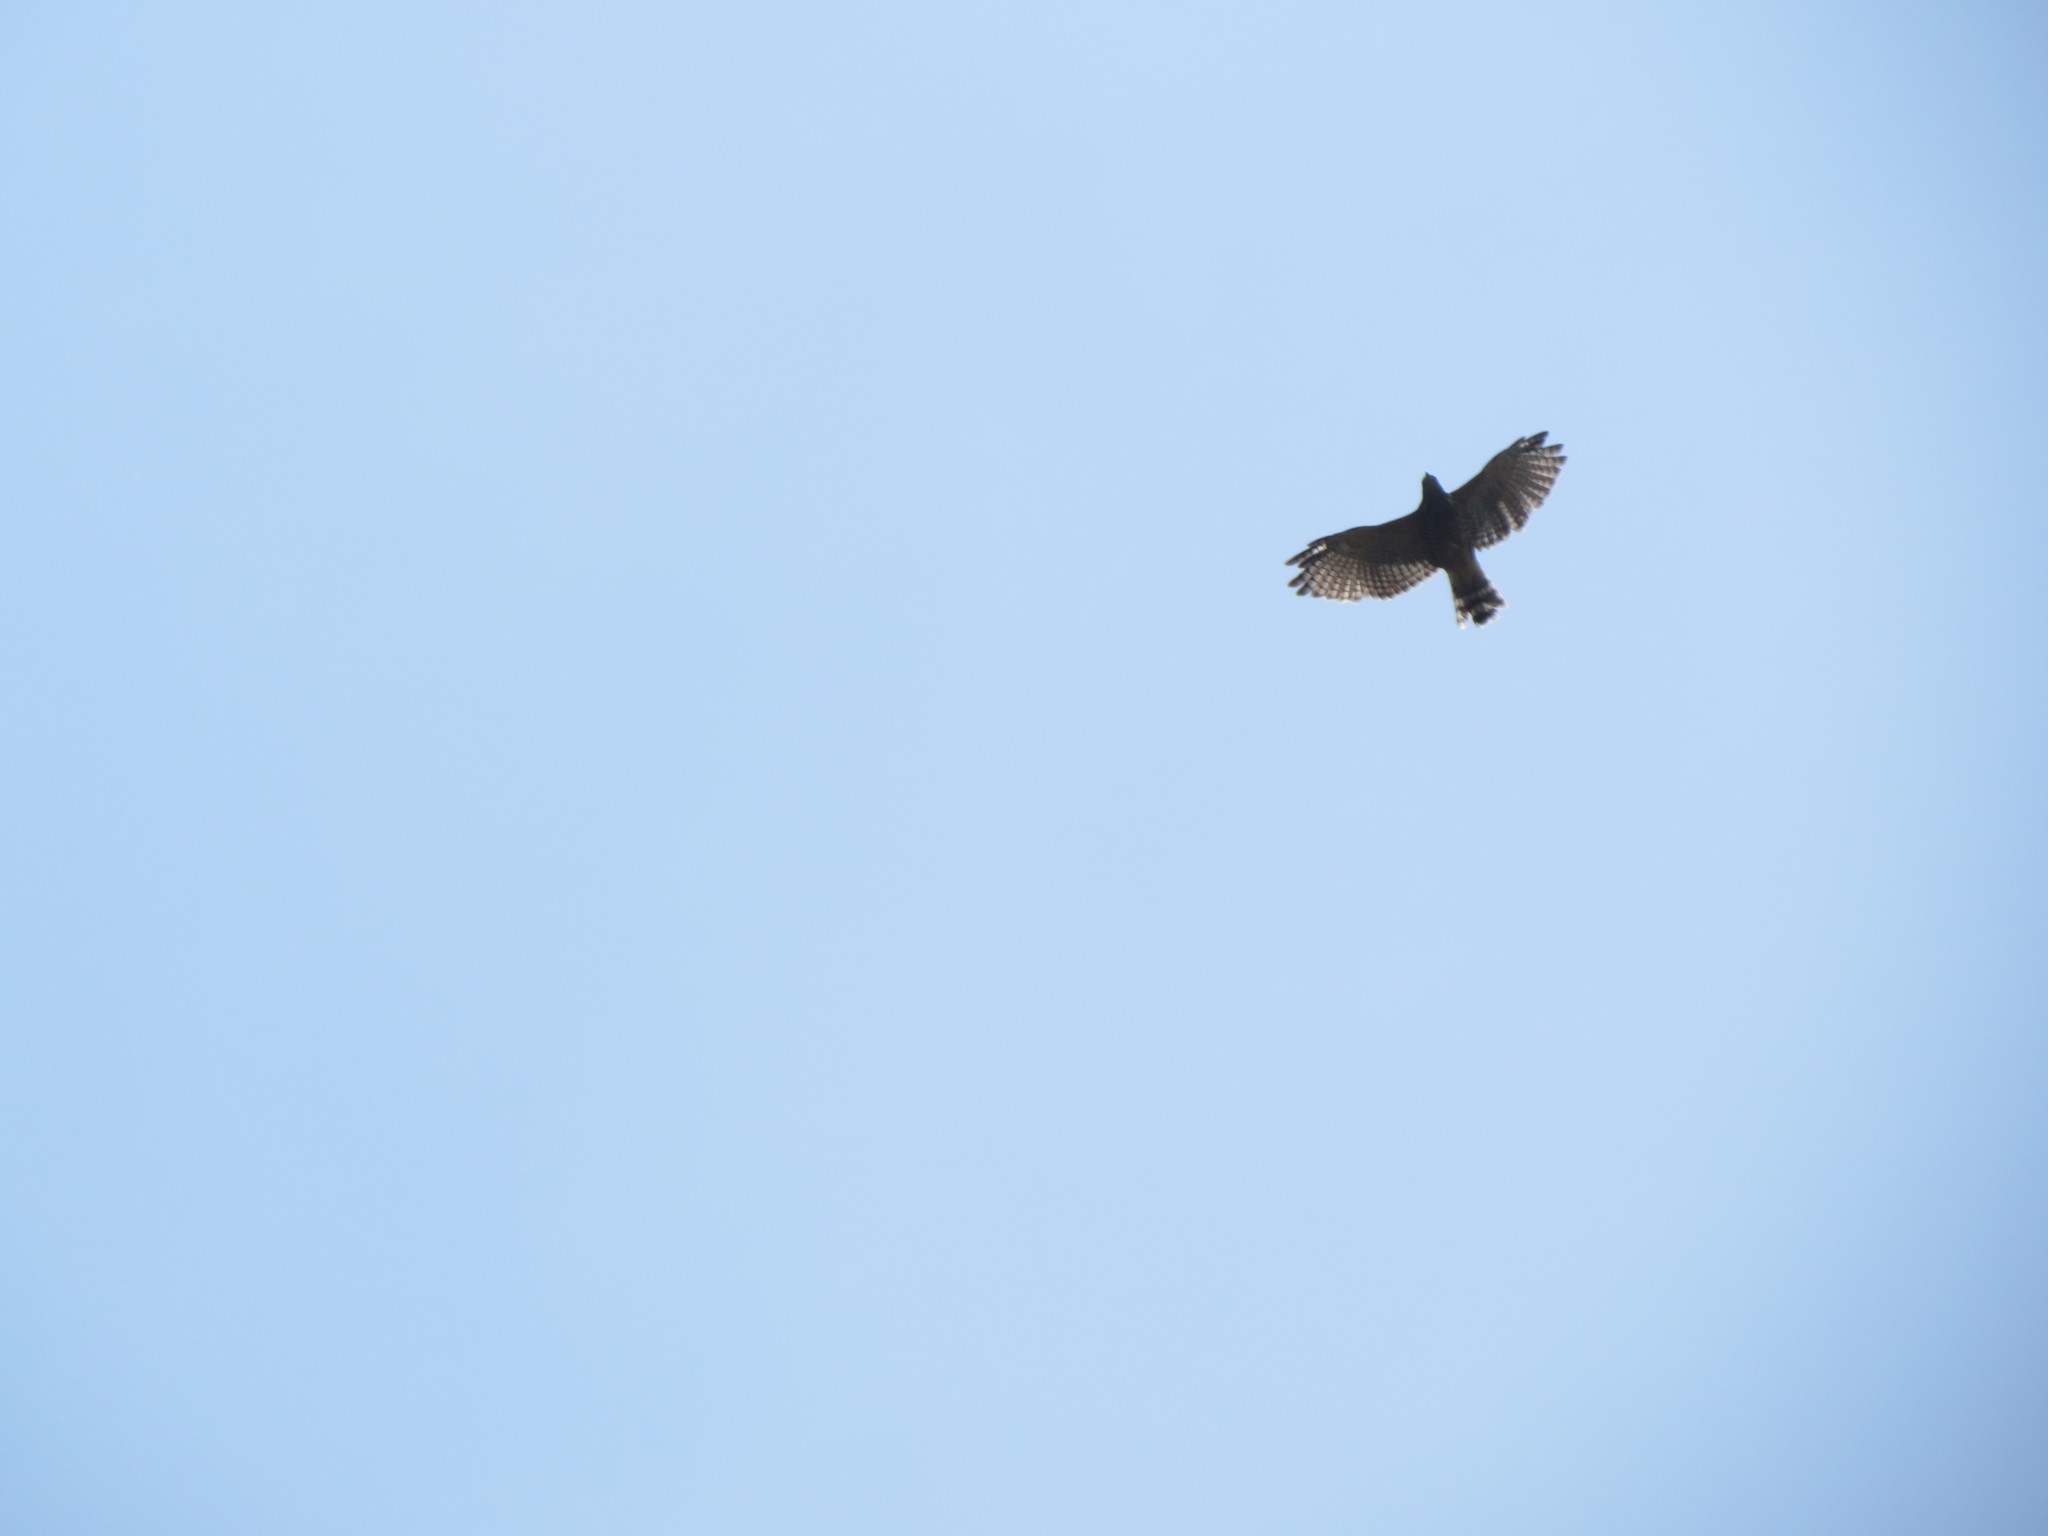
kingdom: Animalia
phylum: Chordata
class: Aves
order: Accipitriformes
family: Accipitridae
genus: Rupornis
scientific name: Rupornis magnirostris
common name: Roadside hawk
